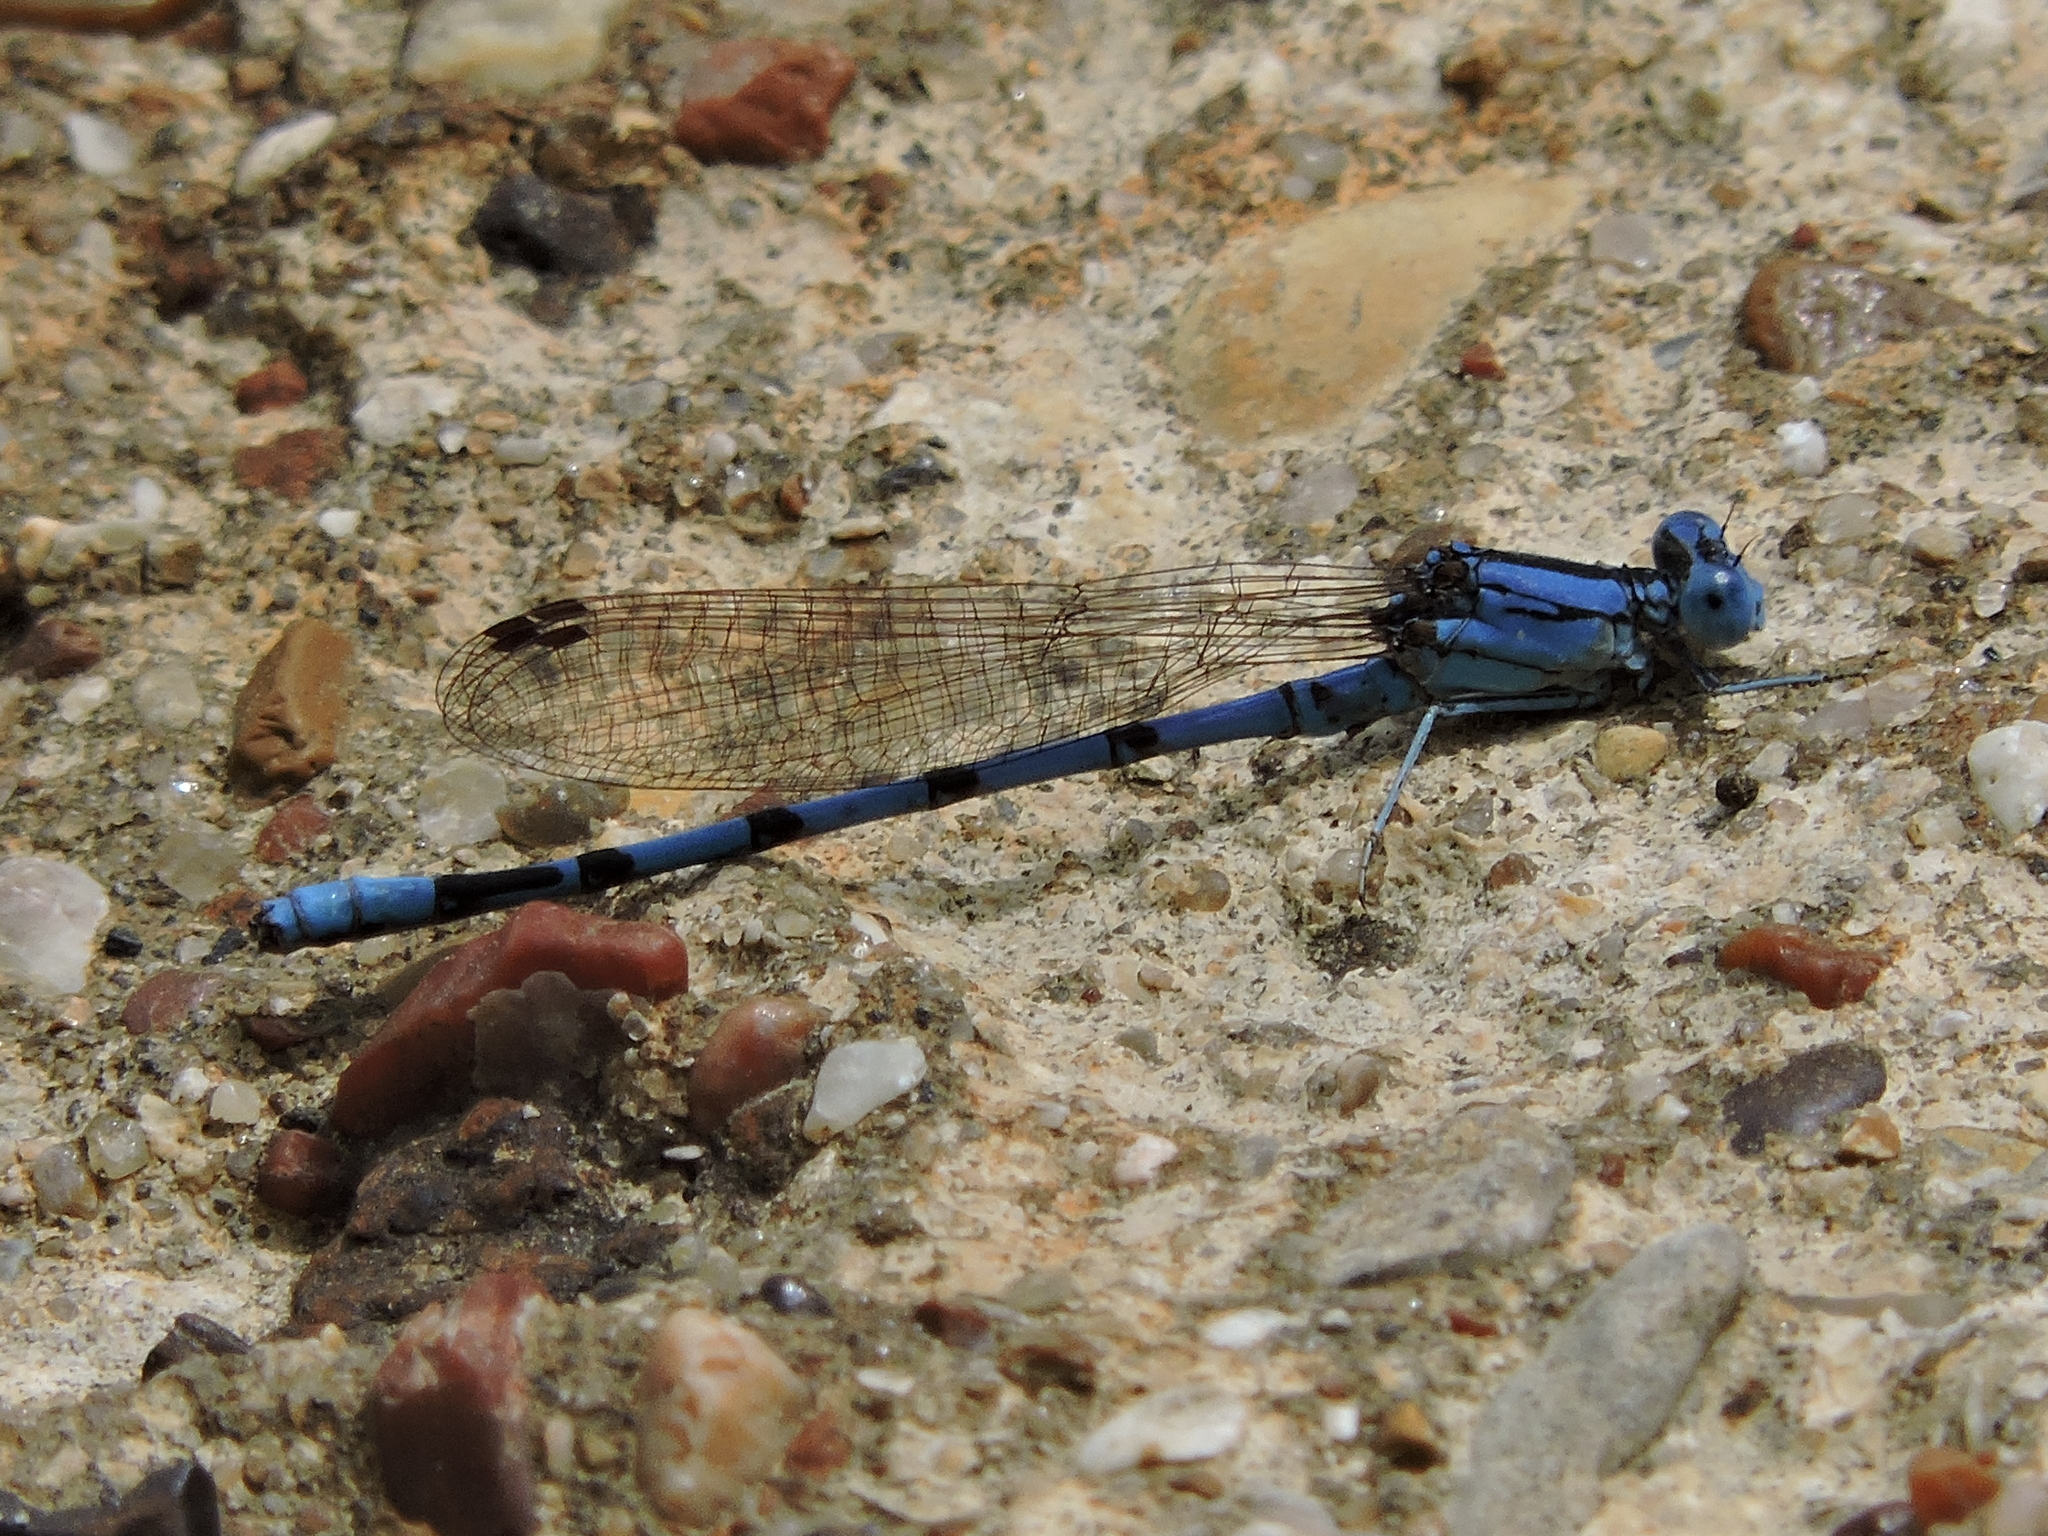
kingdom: Animalia
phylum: Arthropoda
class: Insecta
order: Odonata
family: Coenagrionidae
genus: Argia
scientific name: Argia nahuana
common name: Aztec dancer
